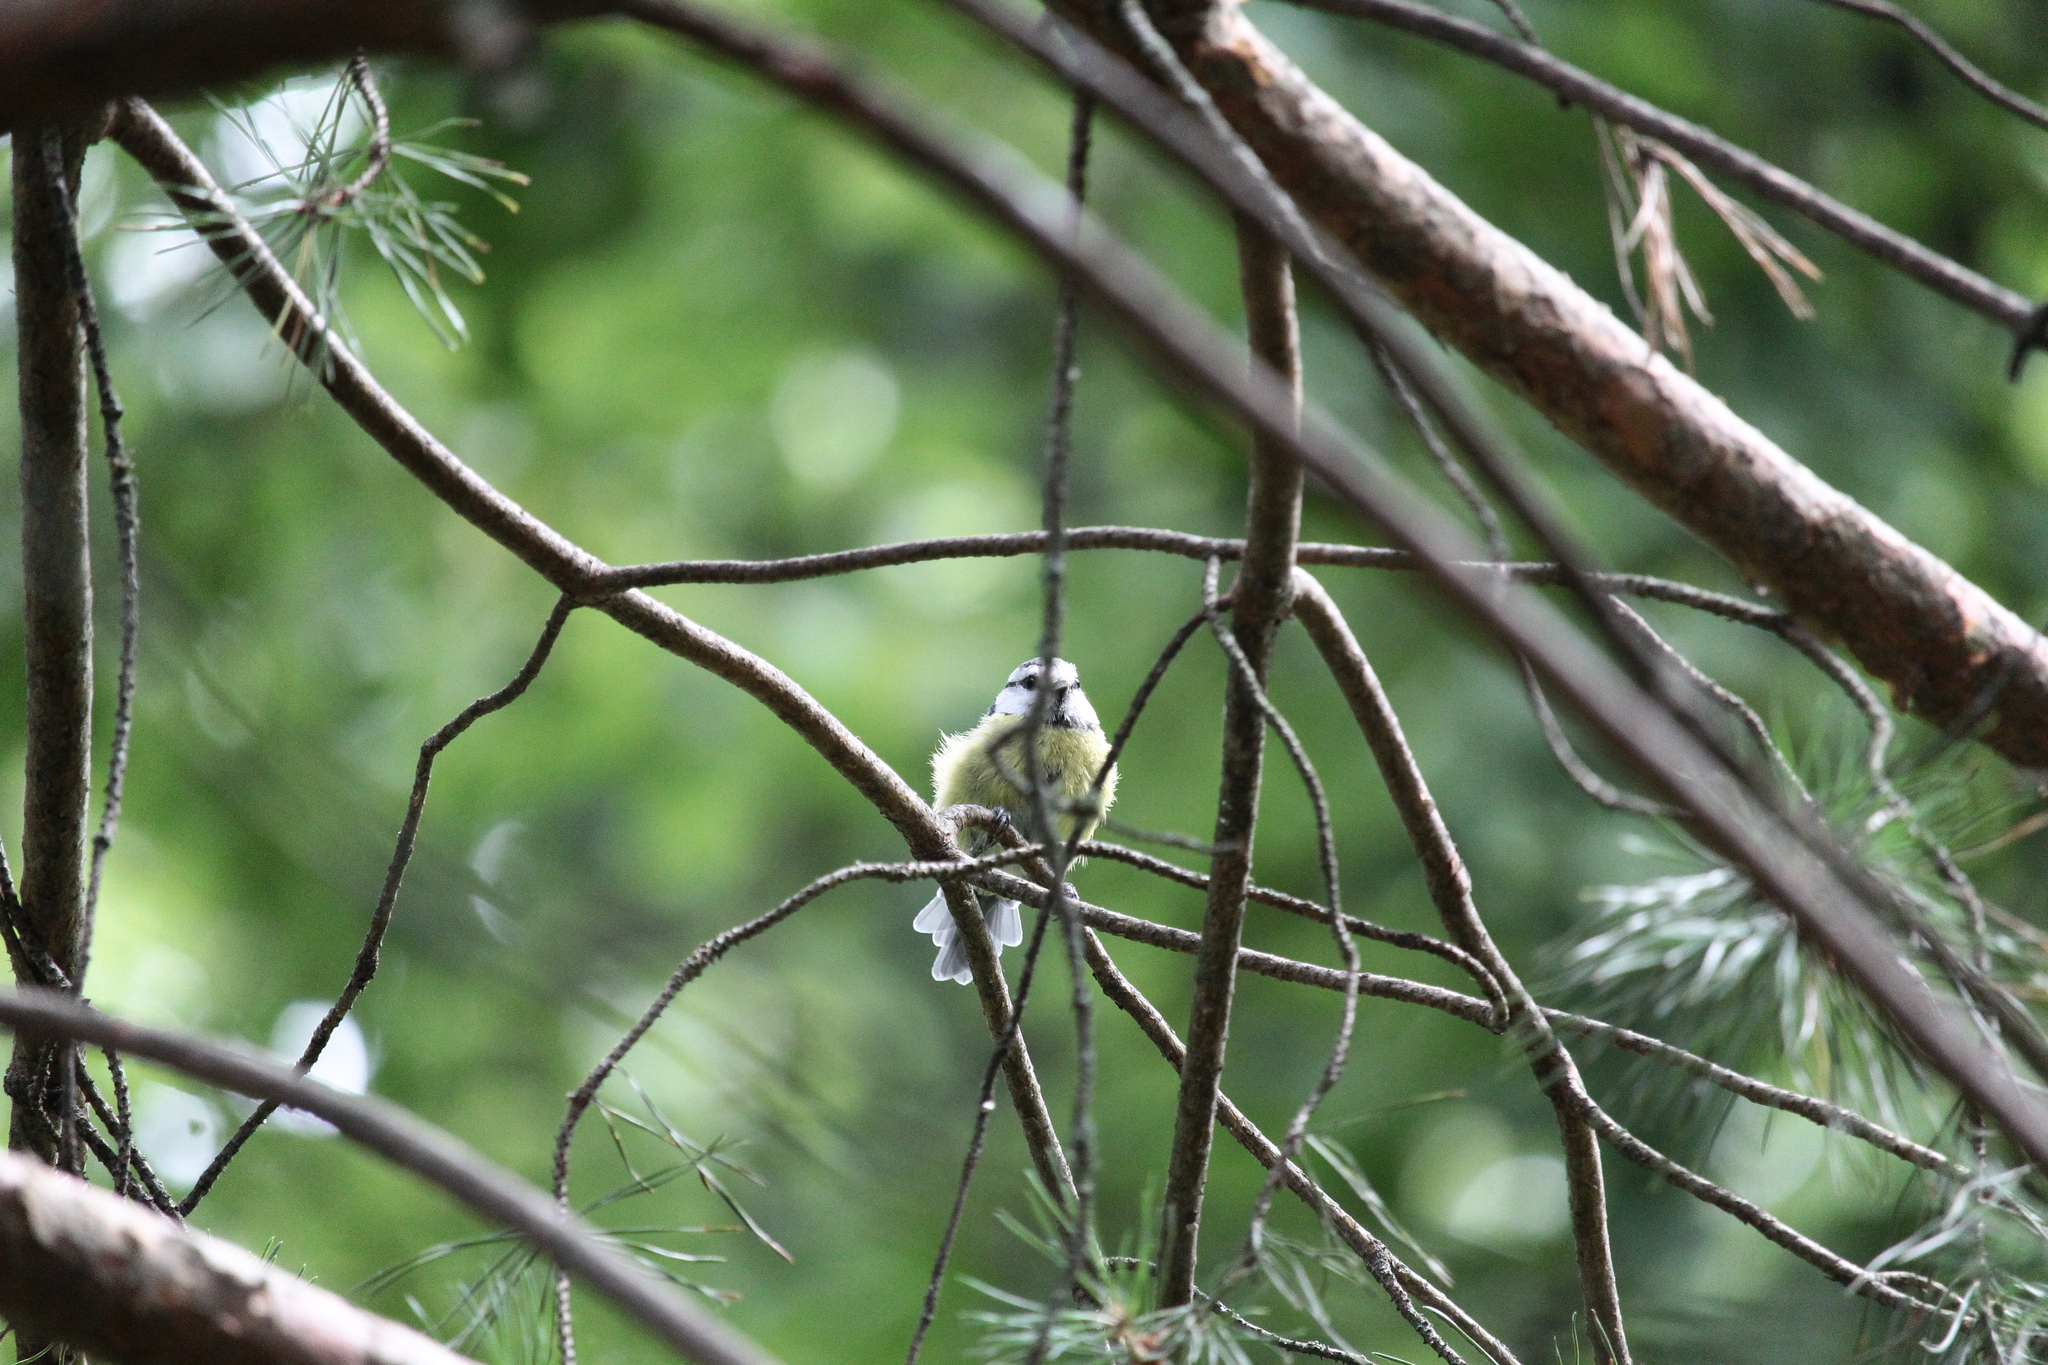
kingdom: Animalia
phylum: Chordata
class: Aves
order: Passeriformes
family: Paridae
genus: Cyanistes
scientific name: Cyanistes caeruleus
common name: Eurasian blue tit
